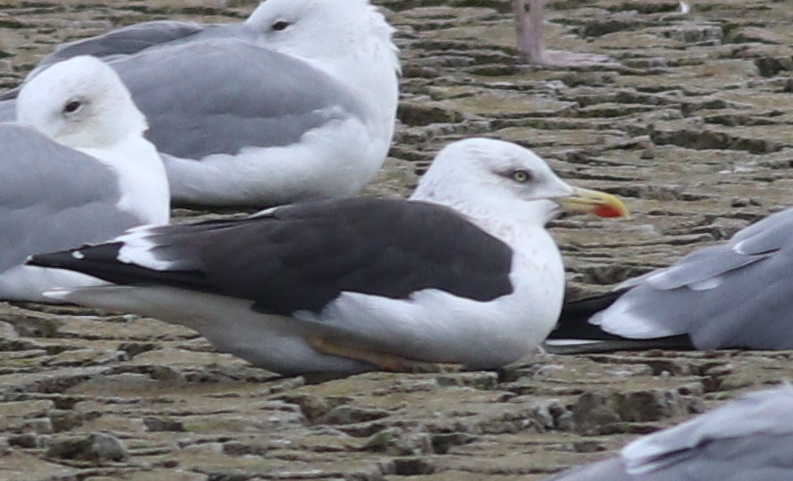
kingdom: Animalia
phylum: Chordata
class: Aves
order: Charadriiformes
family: Laridae
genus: Larus
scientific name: Larus fuscus
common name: Lesser black-backed gull
